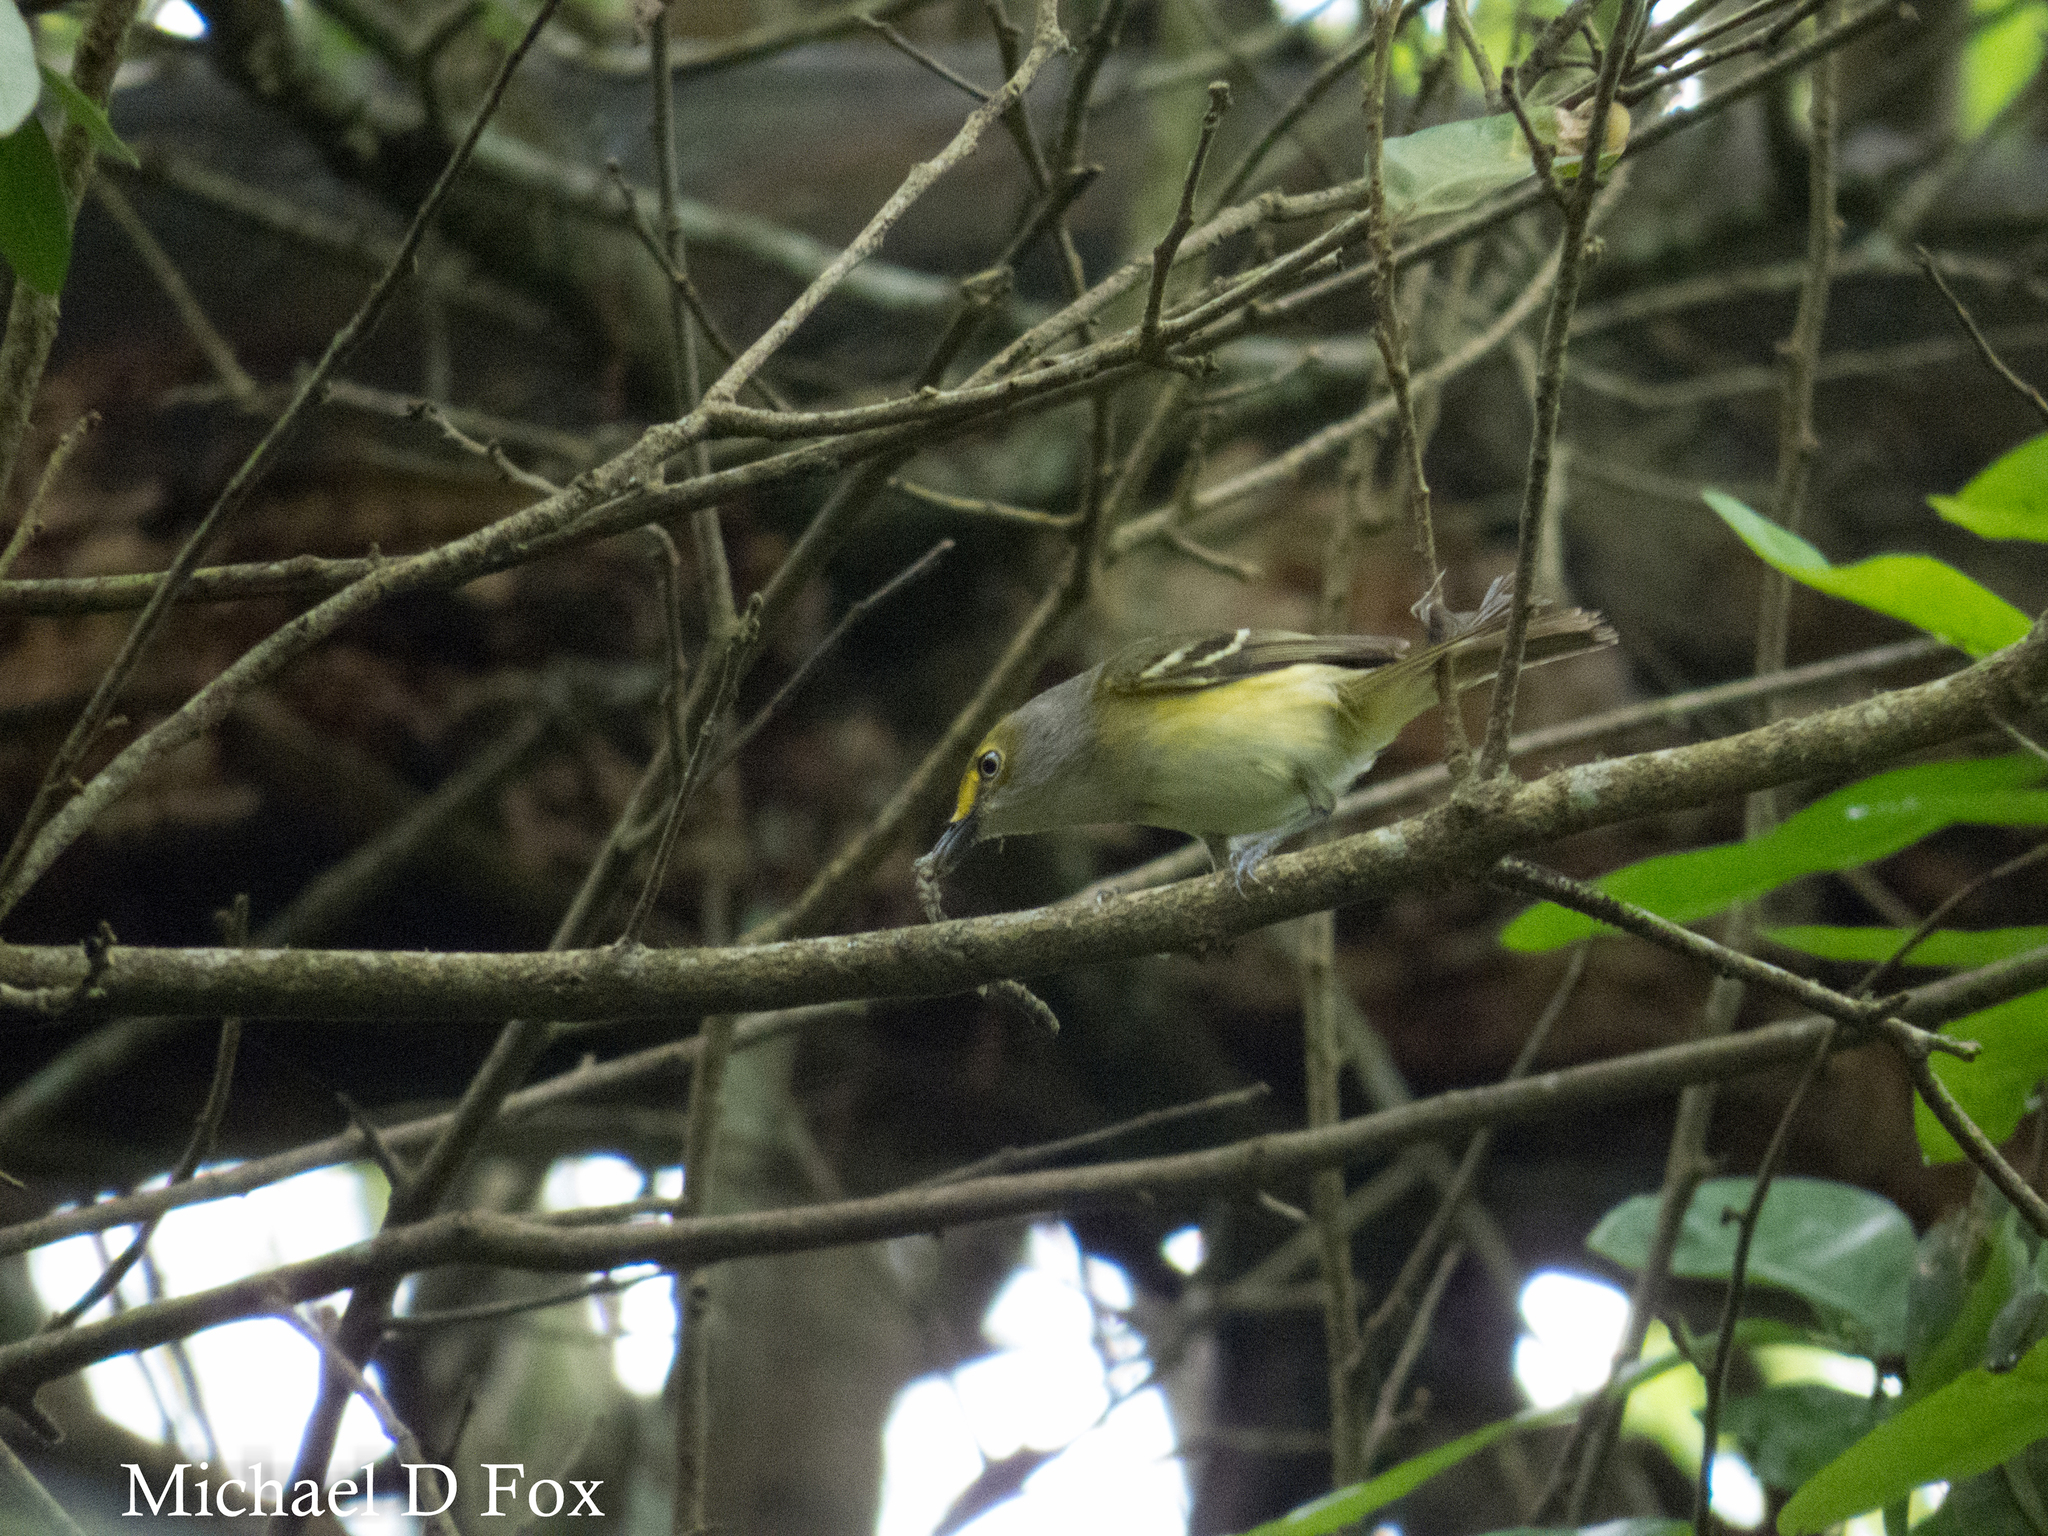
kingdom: Animalia
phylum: Chordata
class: Aves
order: Passeriformes
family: Vireonidae
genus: Vireo
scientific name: Vireo griseus
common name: White-eyed vireo
